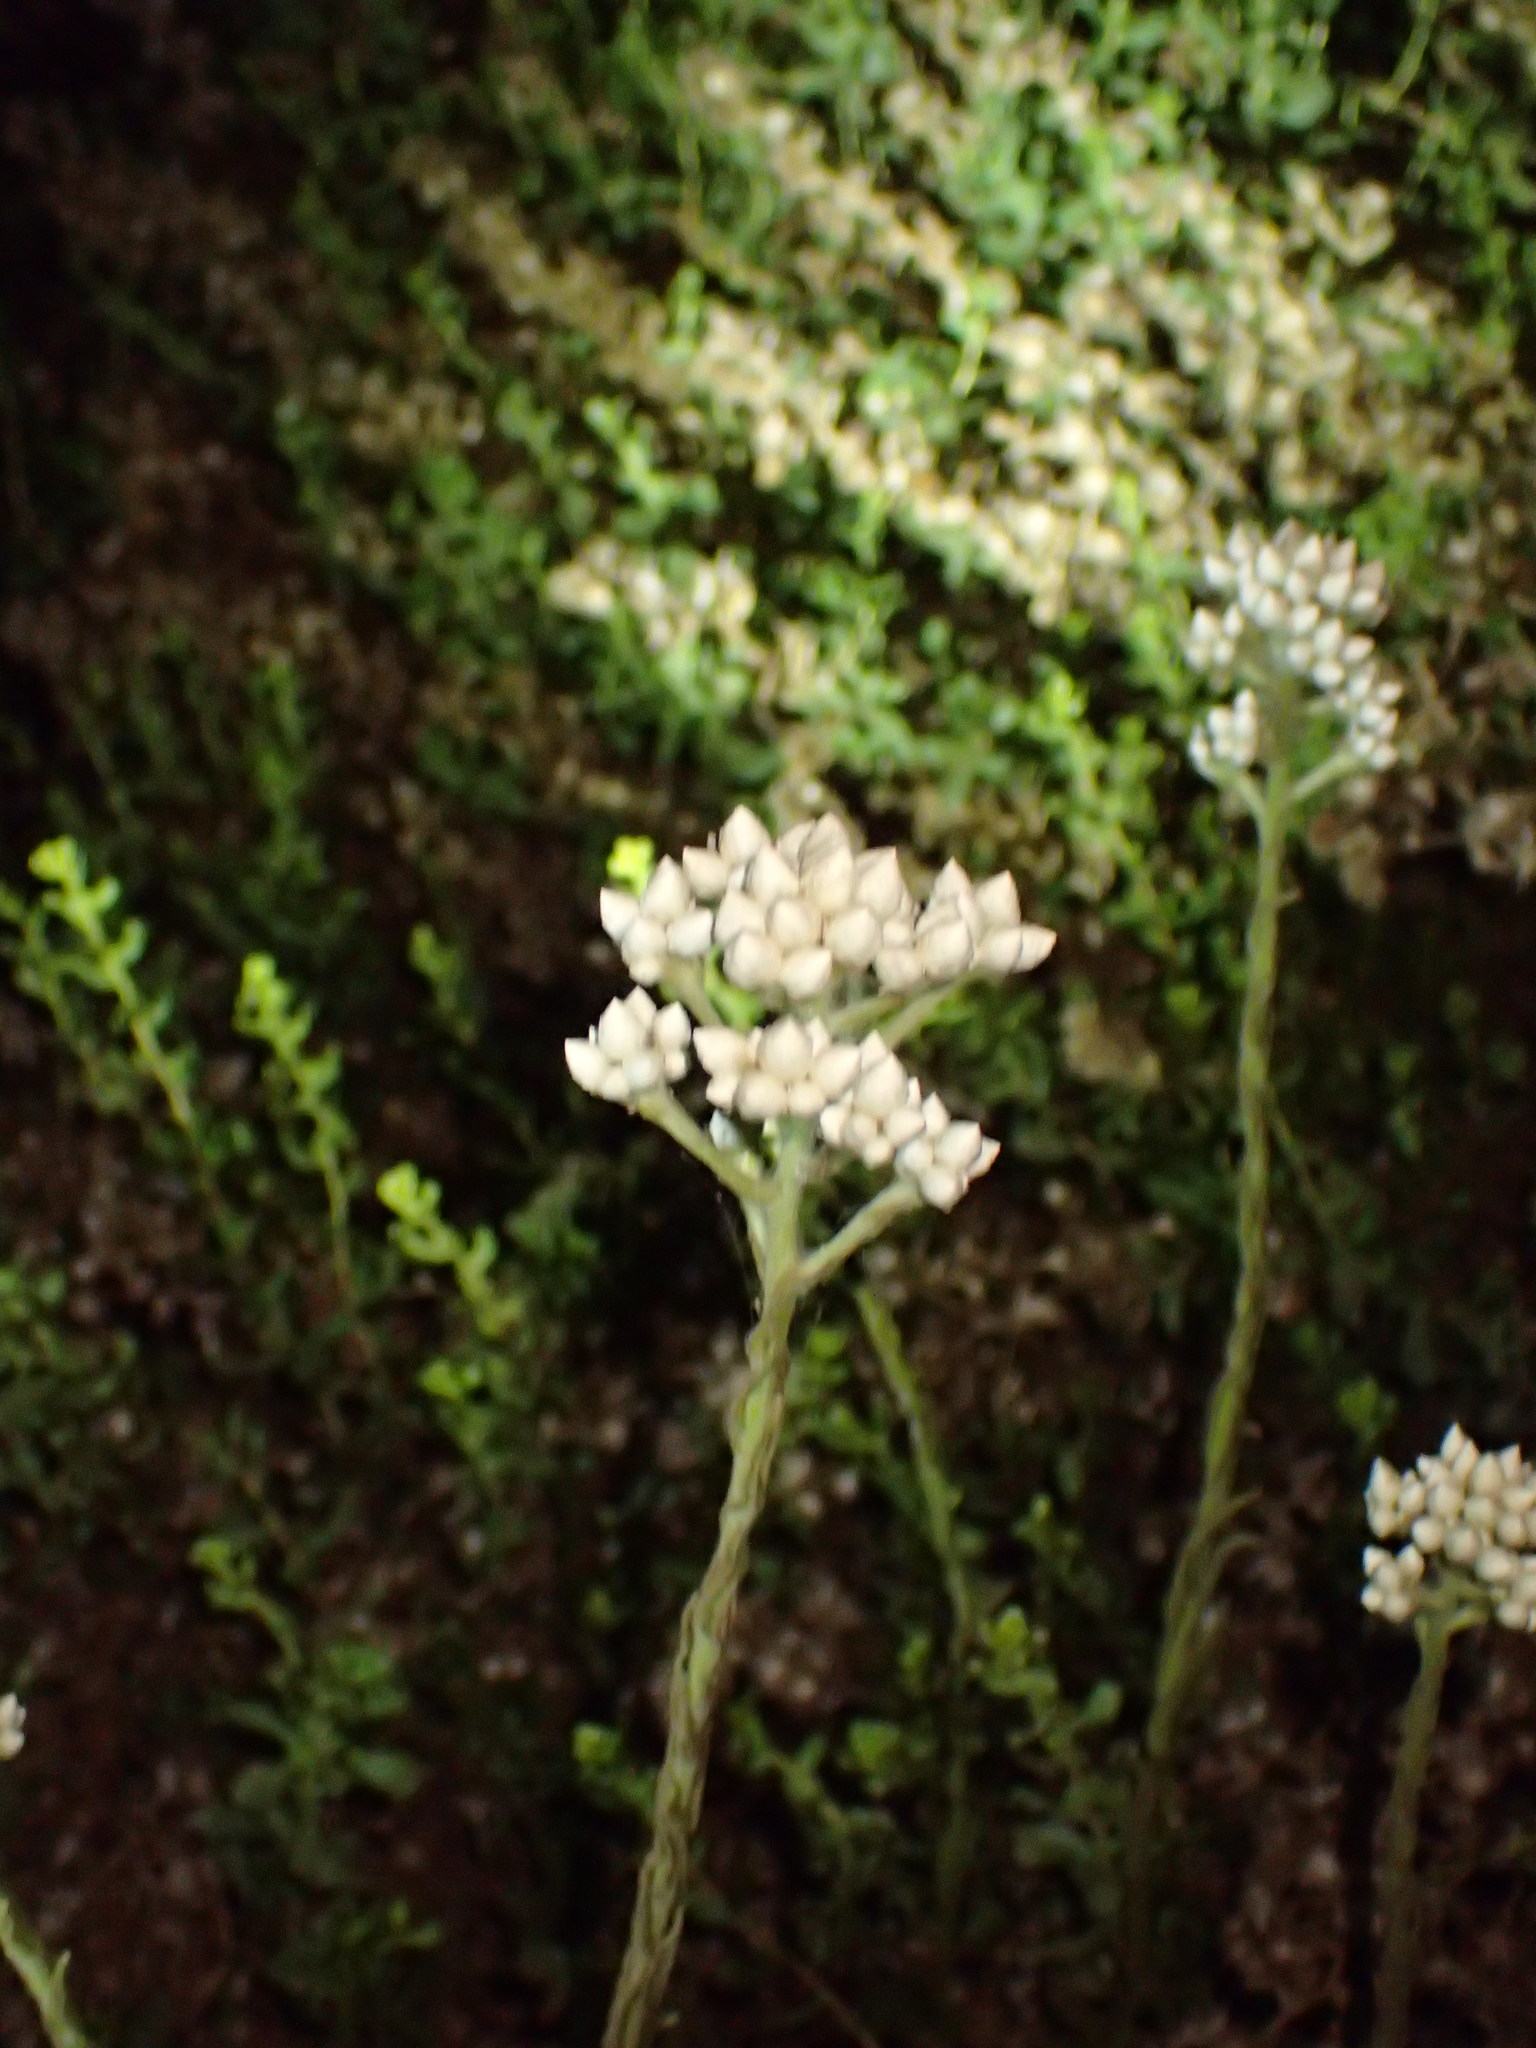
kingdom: Plantae
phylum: Tracheophyta
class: Magnoliopsida
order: Asterales
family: Asteraceae
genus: Pseudognaphalium
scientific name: Pseudognaphalium californicum
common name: California rabbit-tobacco
